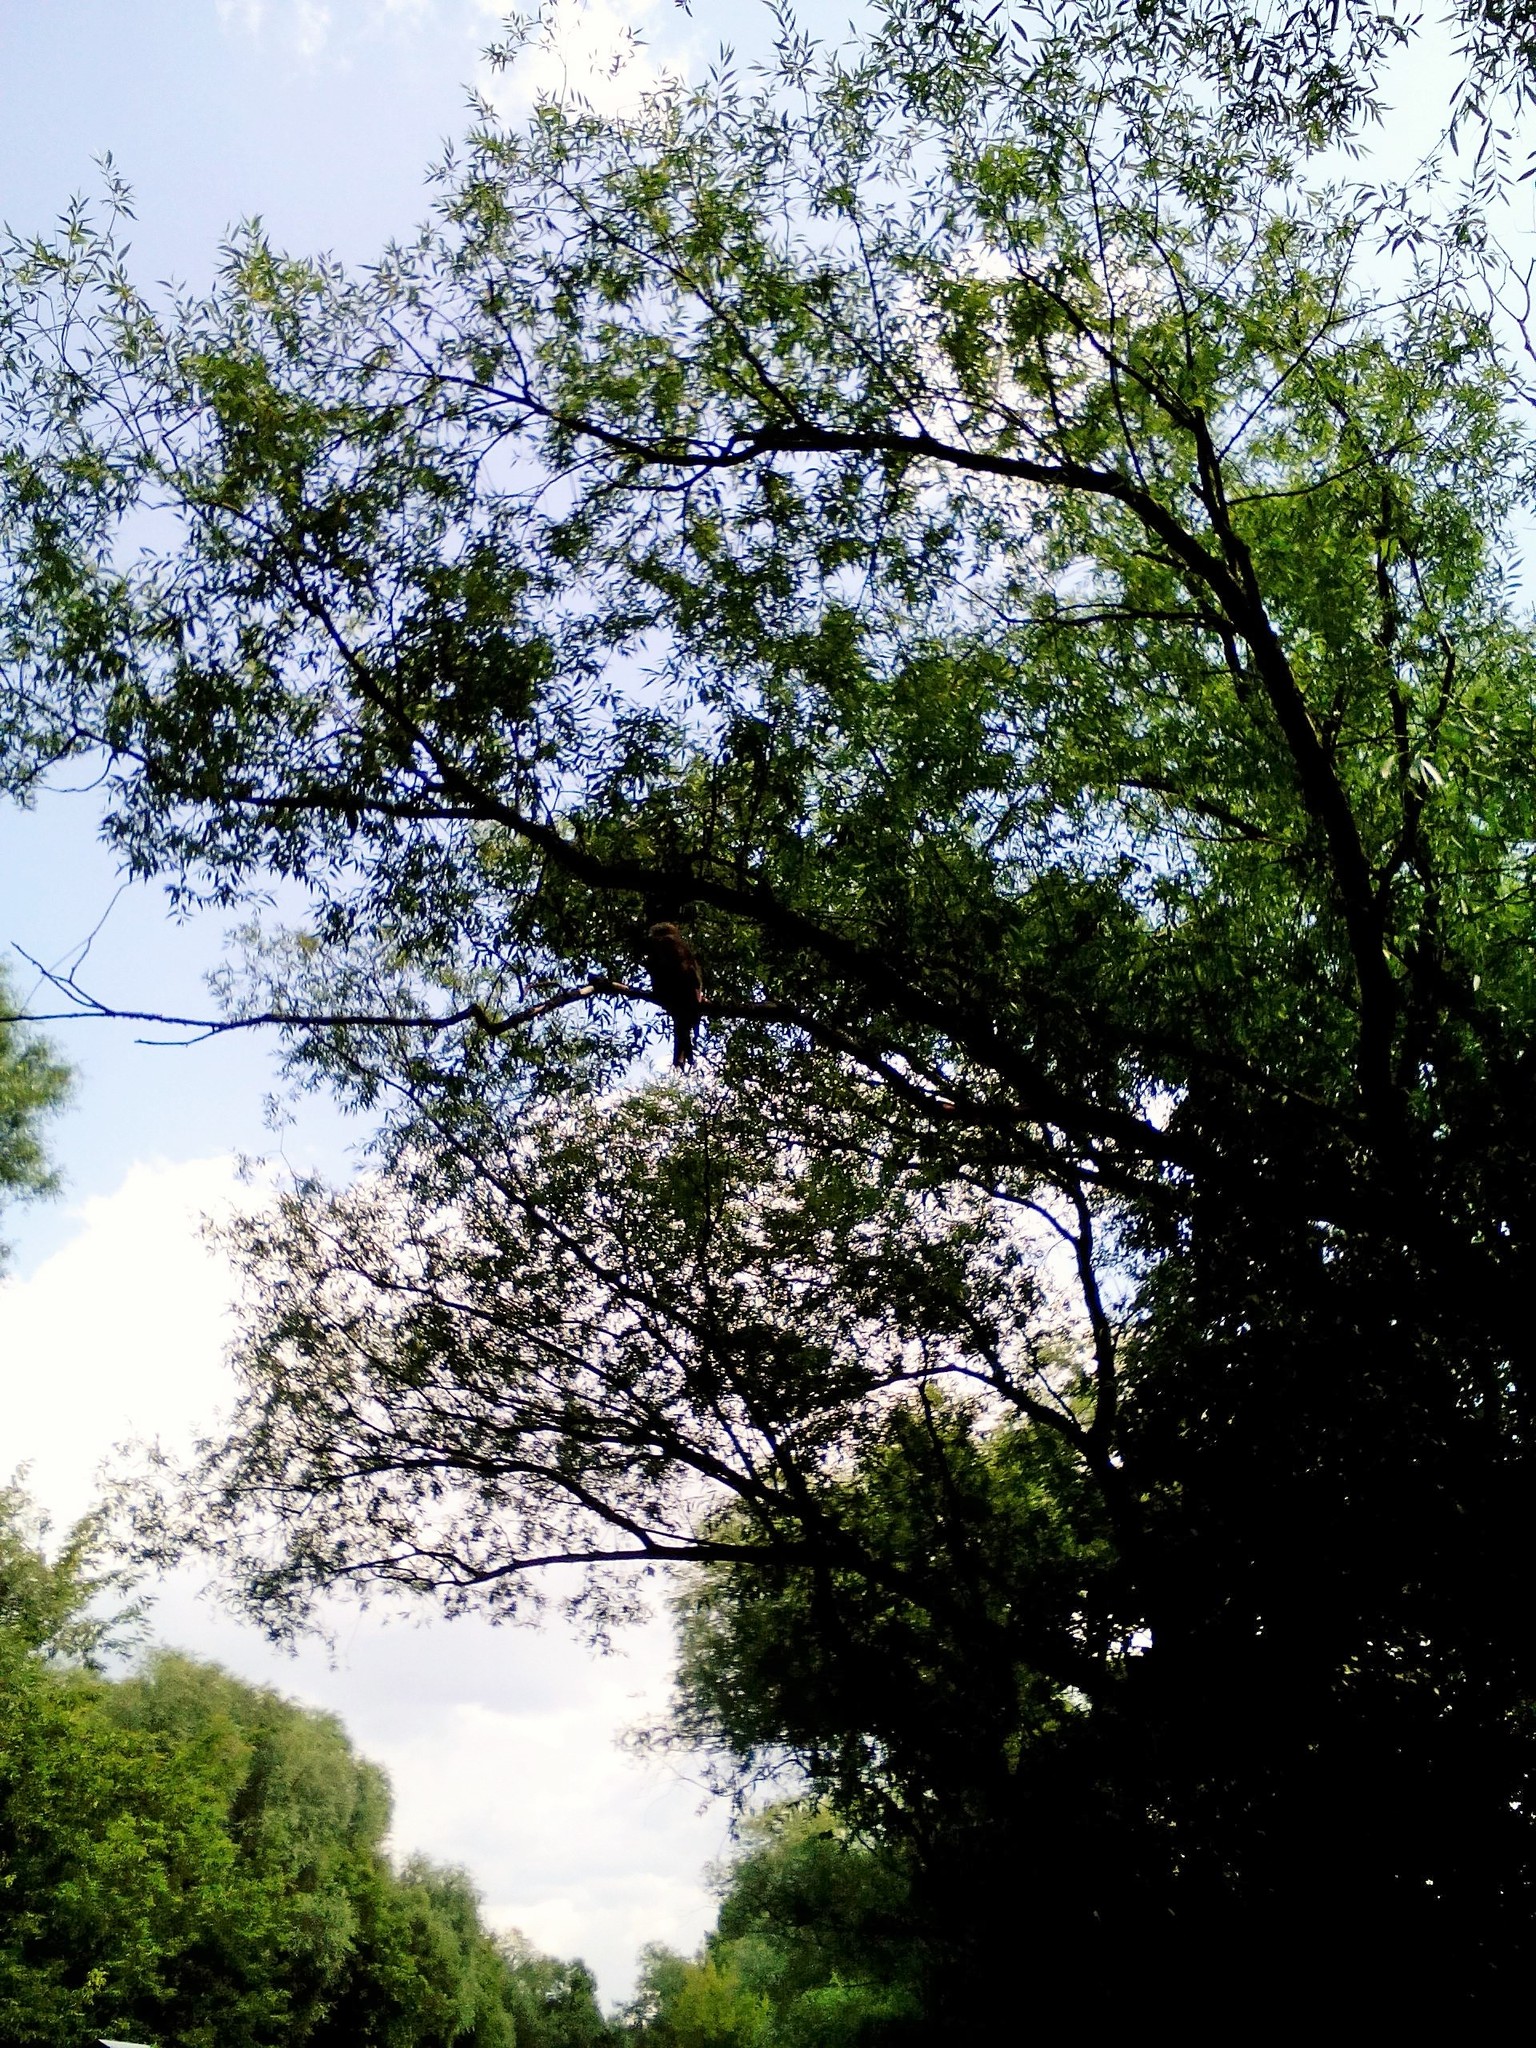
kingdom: Animalia
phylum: Chordata
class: Aves
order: Accipitriformes
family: Accipitridae
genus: Milvus
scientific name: Milvus migrans
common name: Black kite
